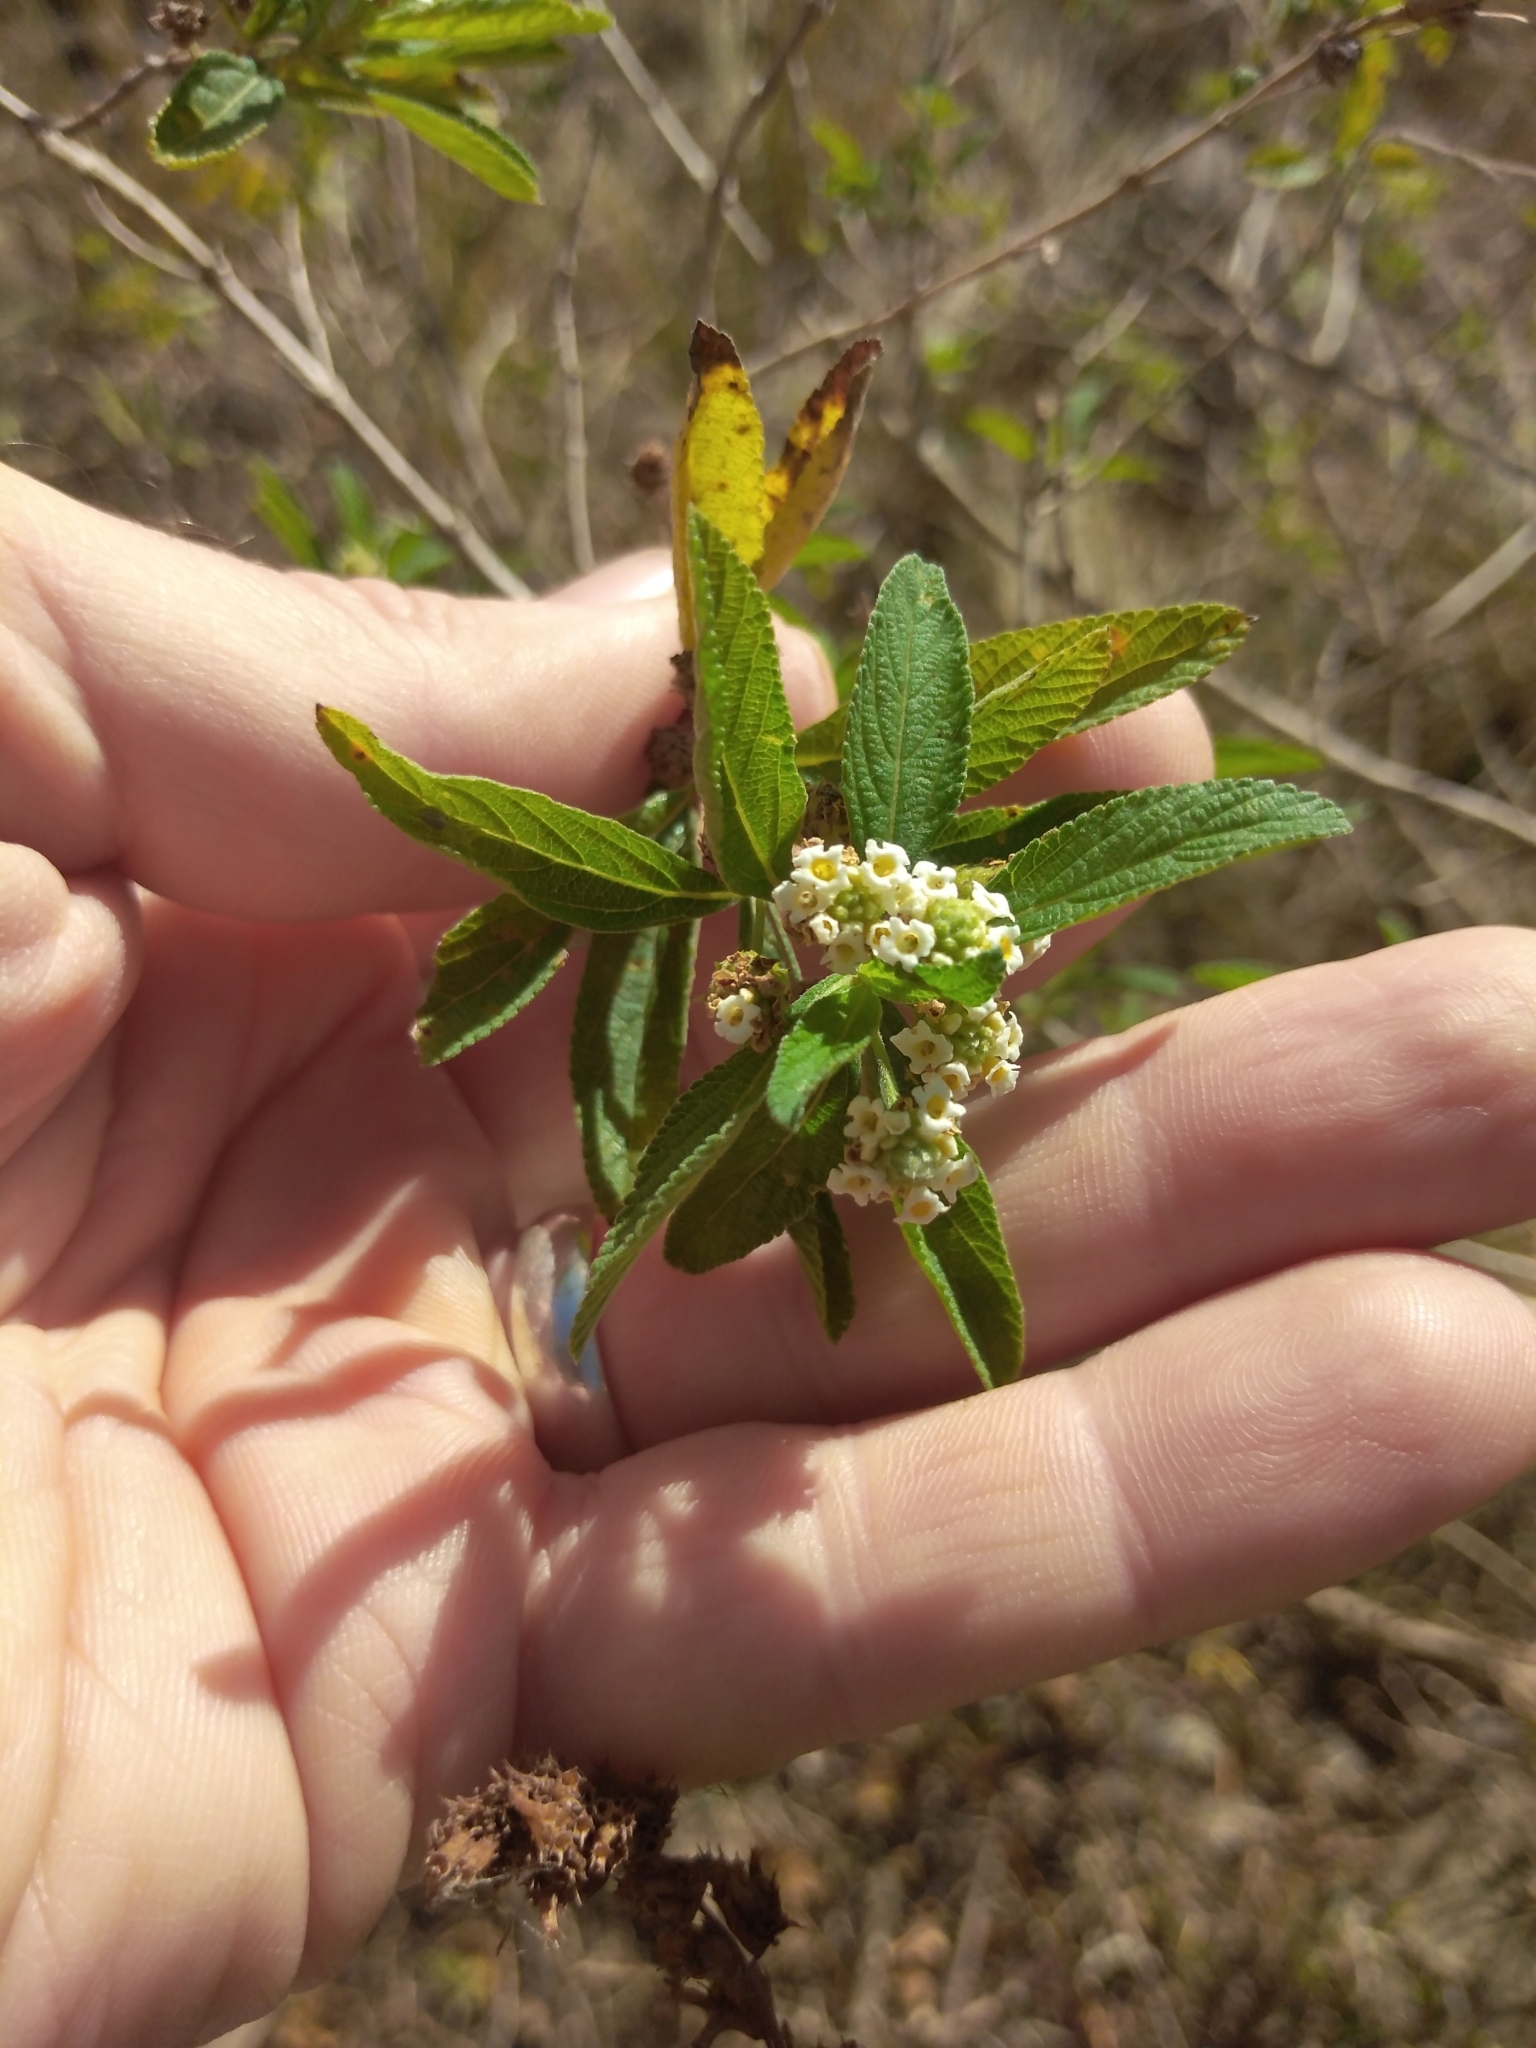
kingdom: Plantae
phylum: Tracheophyta
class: Magnoliopsida
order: Lamiales
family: Verbenaceae
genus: Lippia
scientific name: Lippia javanica
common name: Lemonbush
